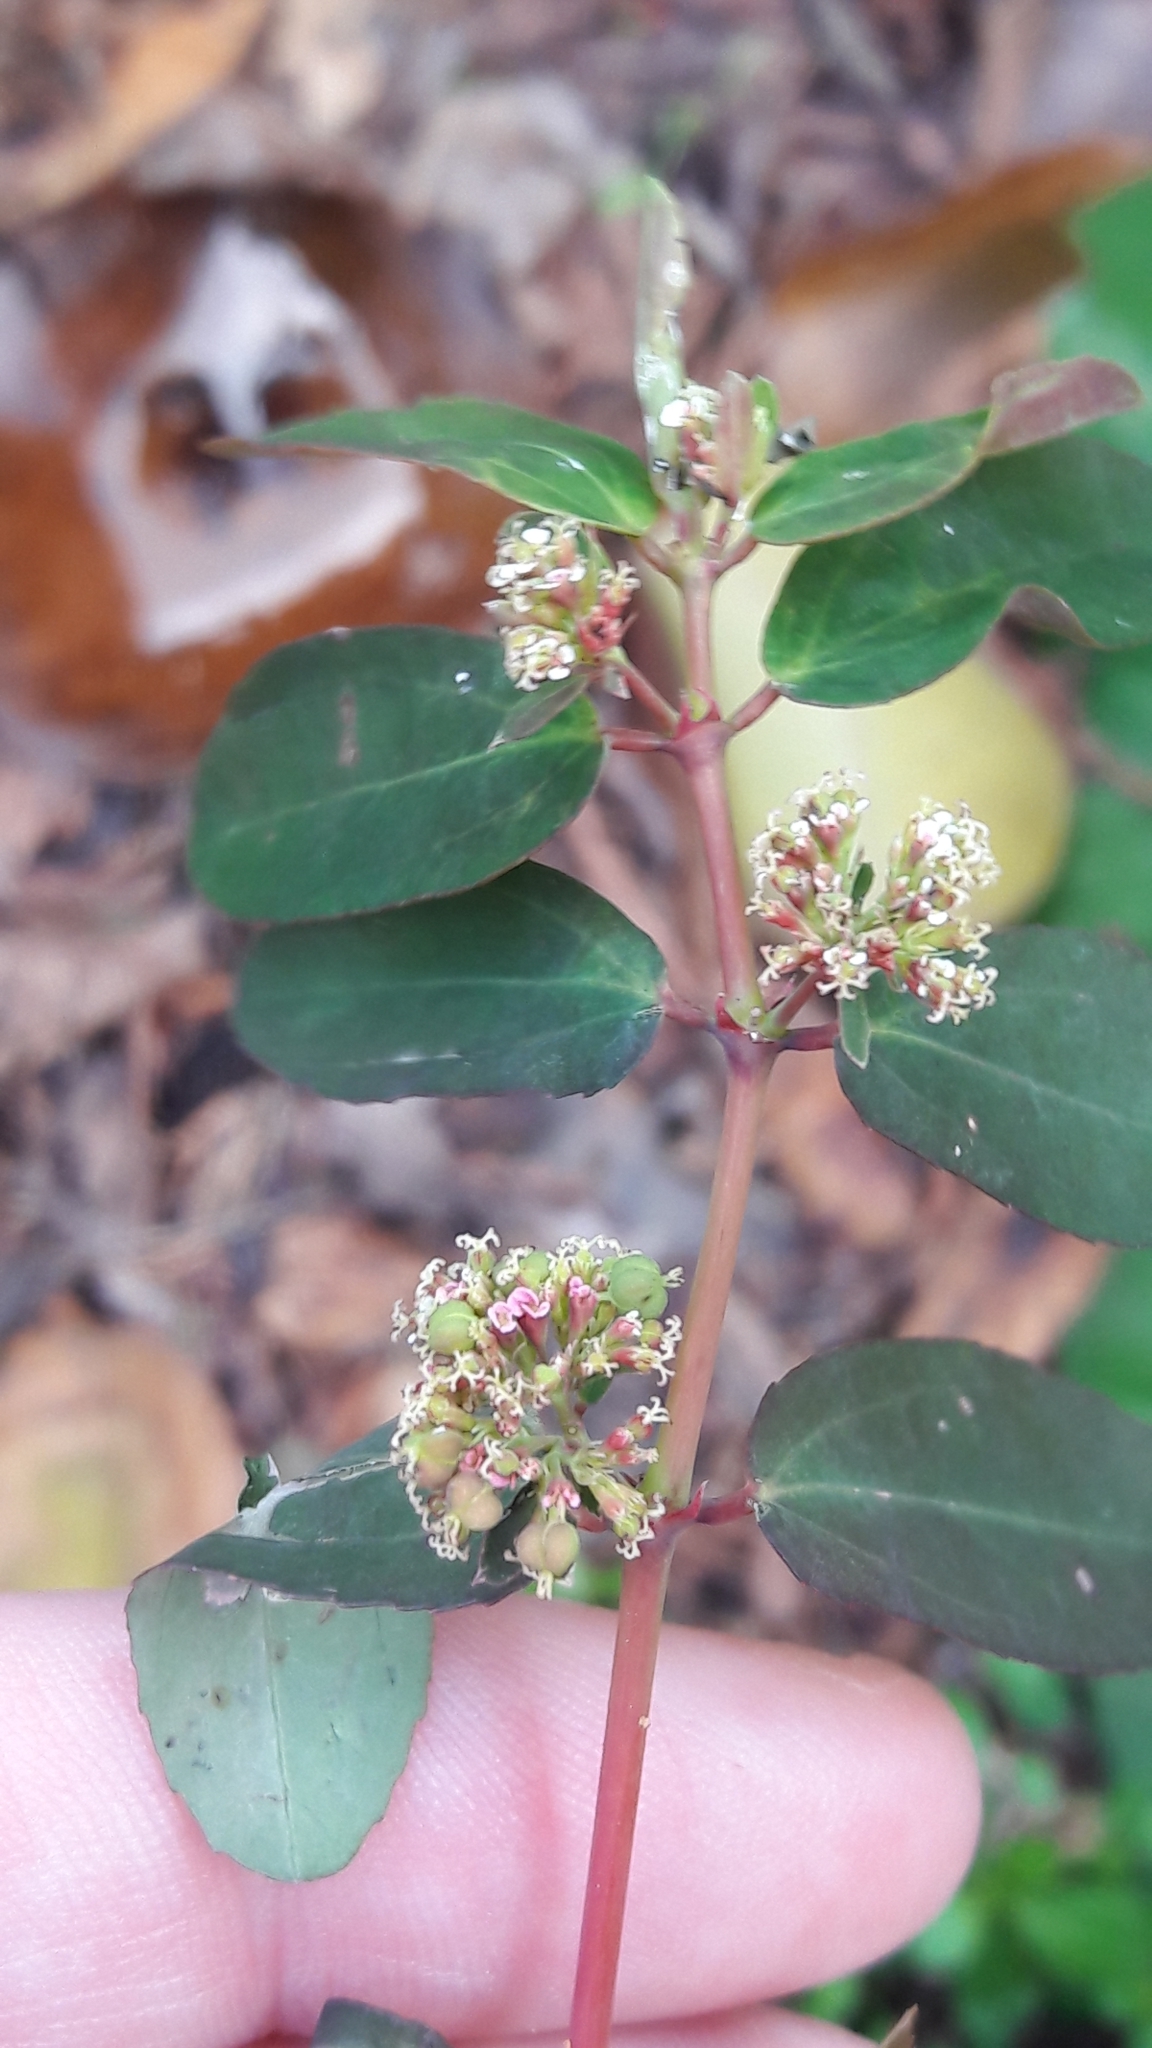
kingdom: Plantae
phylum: Tracheophyta
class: Magnoliopsida
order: Malpighiales
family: Euphorbiaceae
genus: Euphorbia
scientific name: Euphorbia hypericifolia
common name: Graceful sandmat
